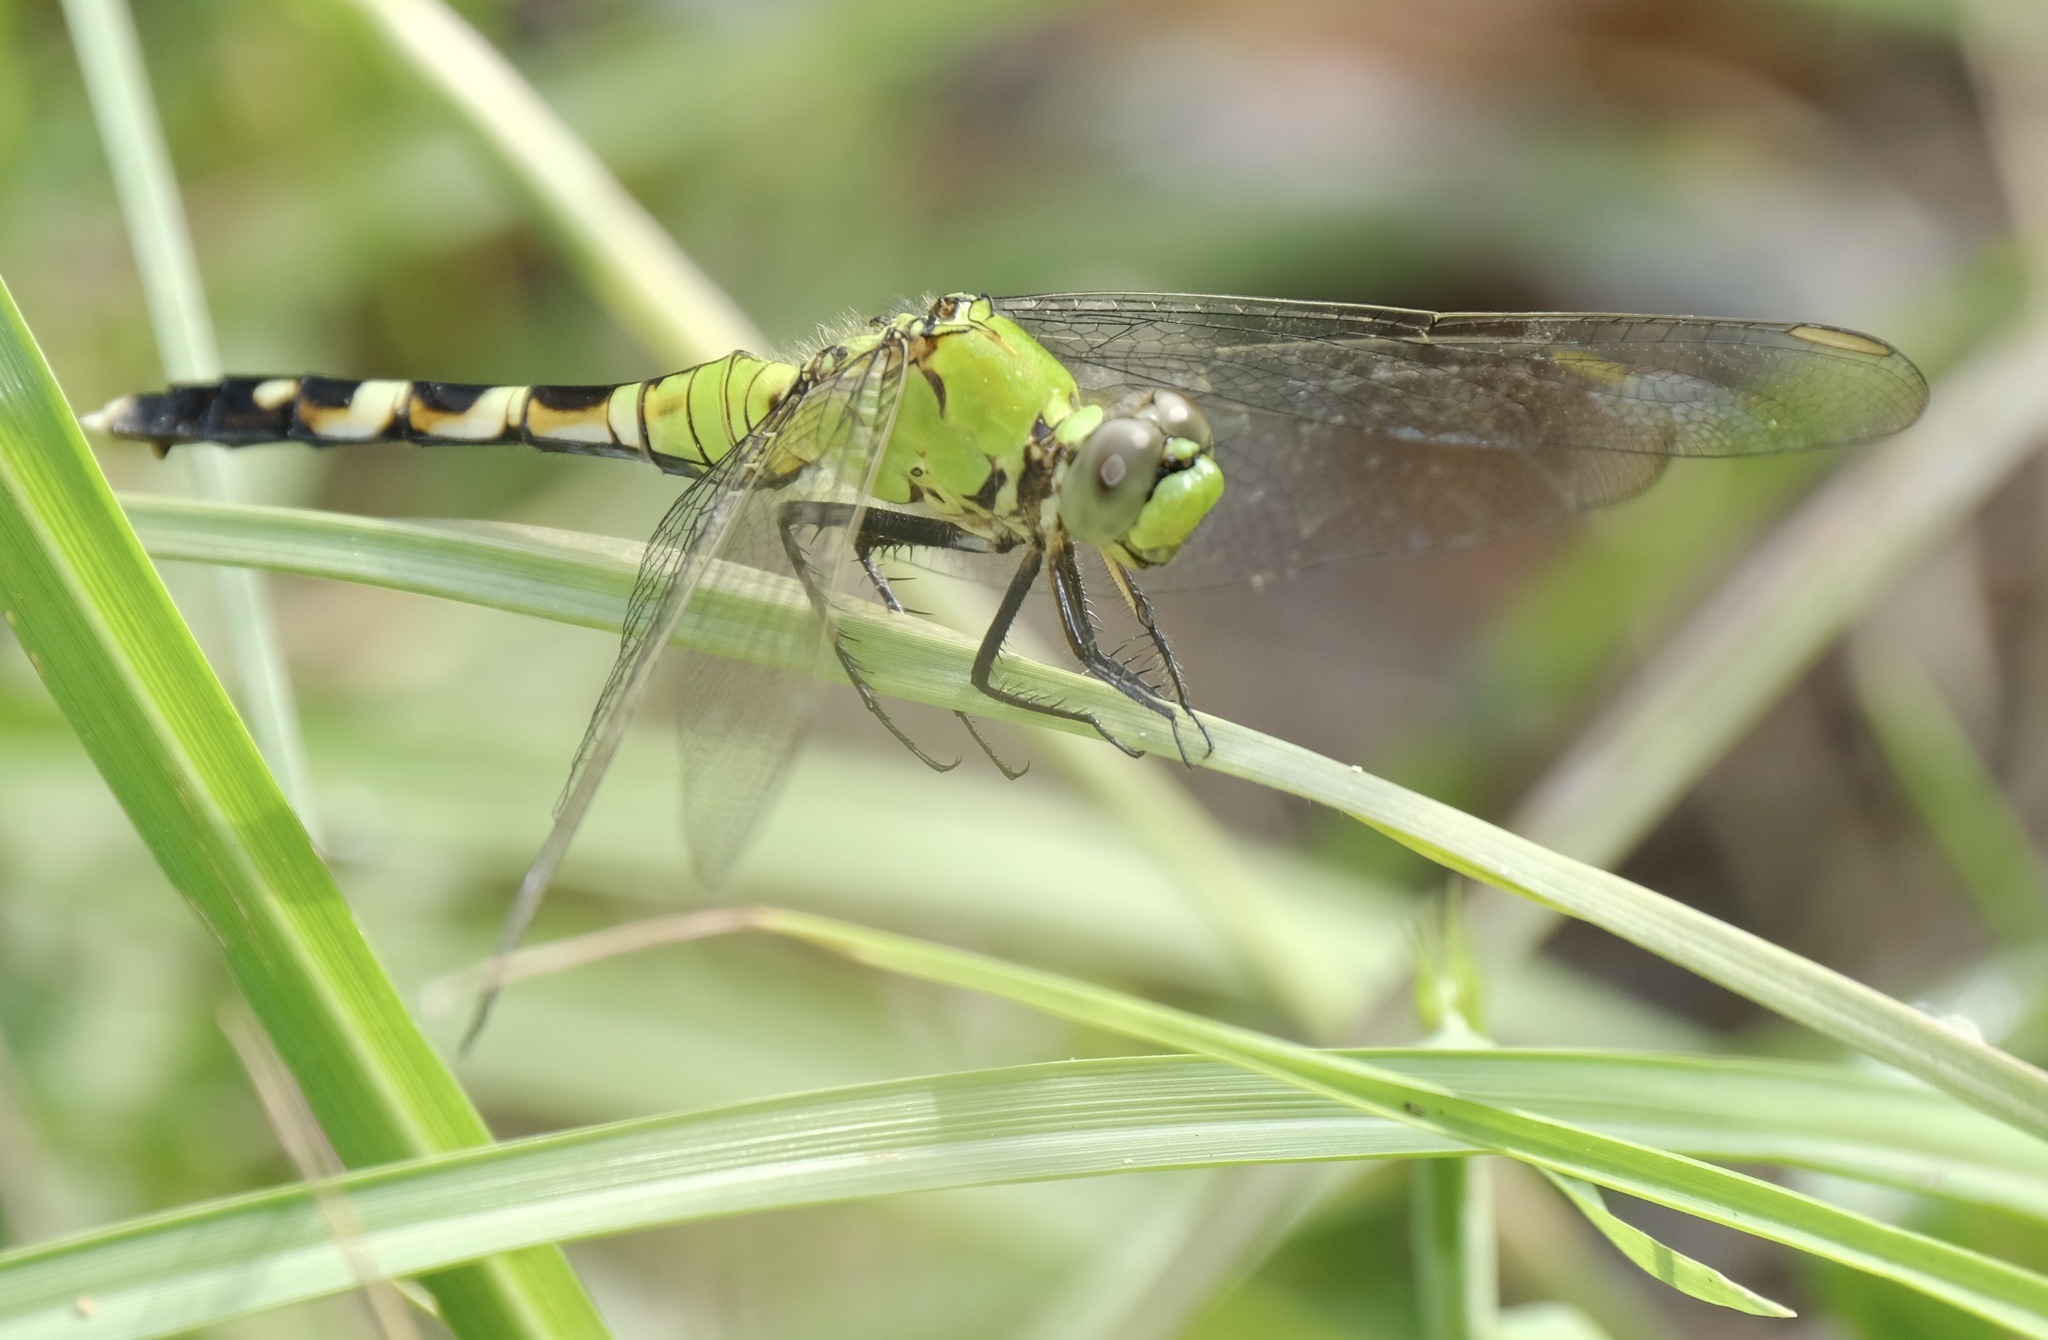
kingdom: Animalia
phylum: Arthropoda
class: Insecta
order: Odonata
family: Libellulidae
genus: Erythemis
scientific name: Erythemis simplicicollis
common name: Eastern pondhawk
